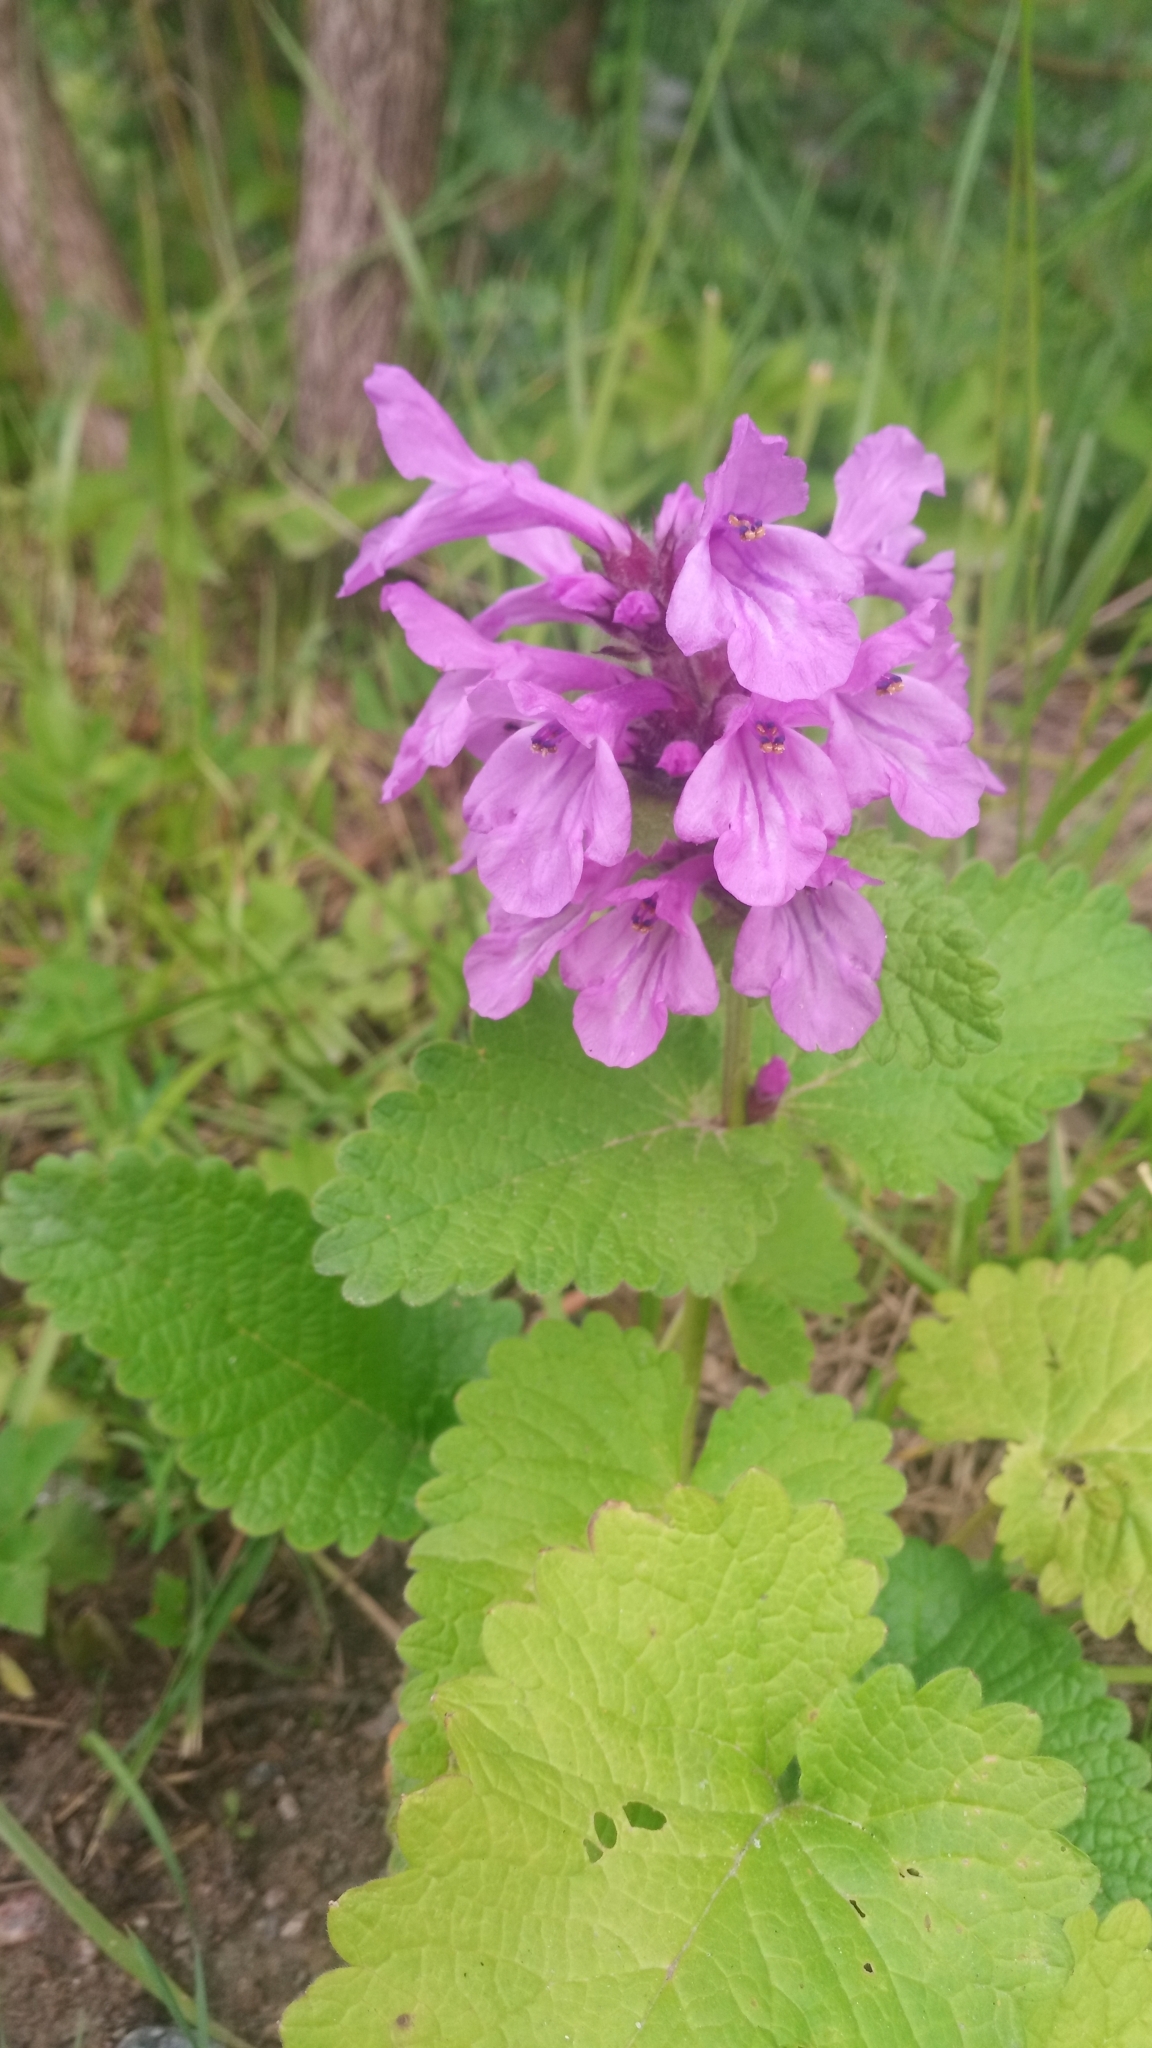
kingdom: Plantae
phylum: Tracheophyta
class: Magnoliopsida
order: Lamiales
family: Lamiaceae
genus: Betonica
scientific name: Betonica macrantha
